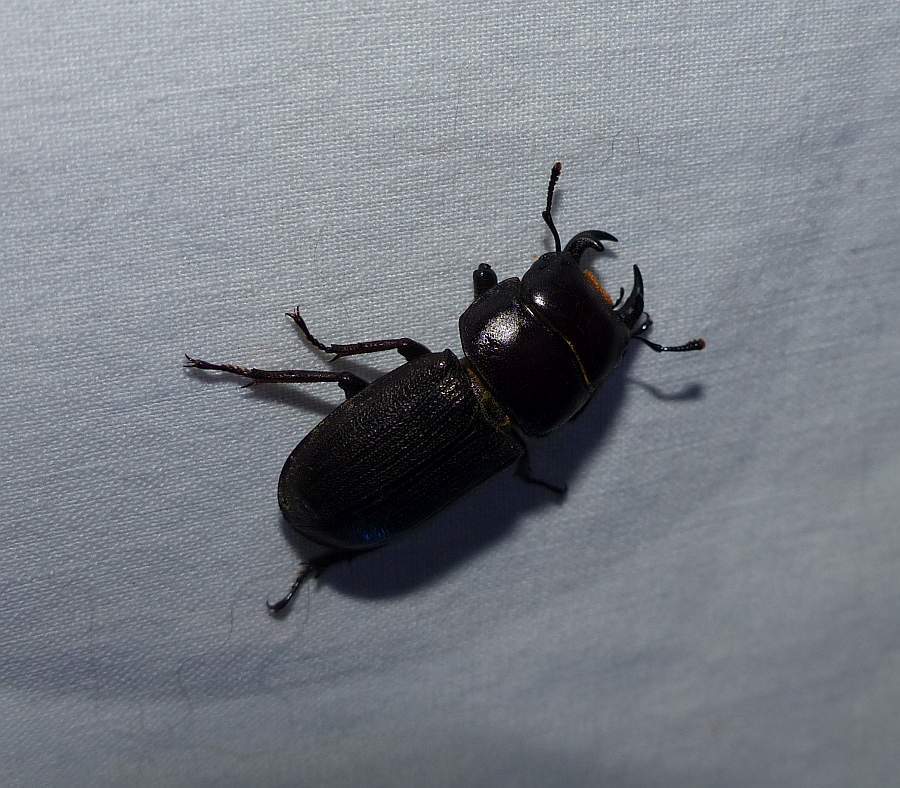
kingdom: Animalia
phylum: Arthropoda
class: Insecta
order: Coleoptera
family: Lucanidae
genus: Dorcus
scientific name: Dorcus parallelus
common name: Antelope beetle
